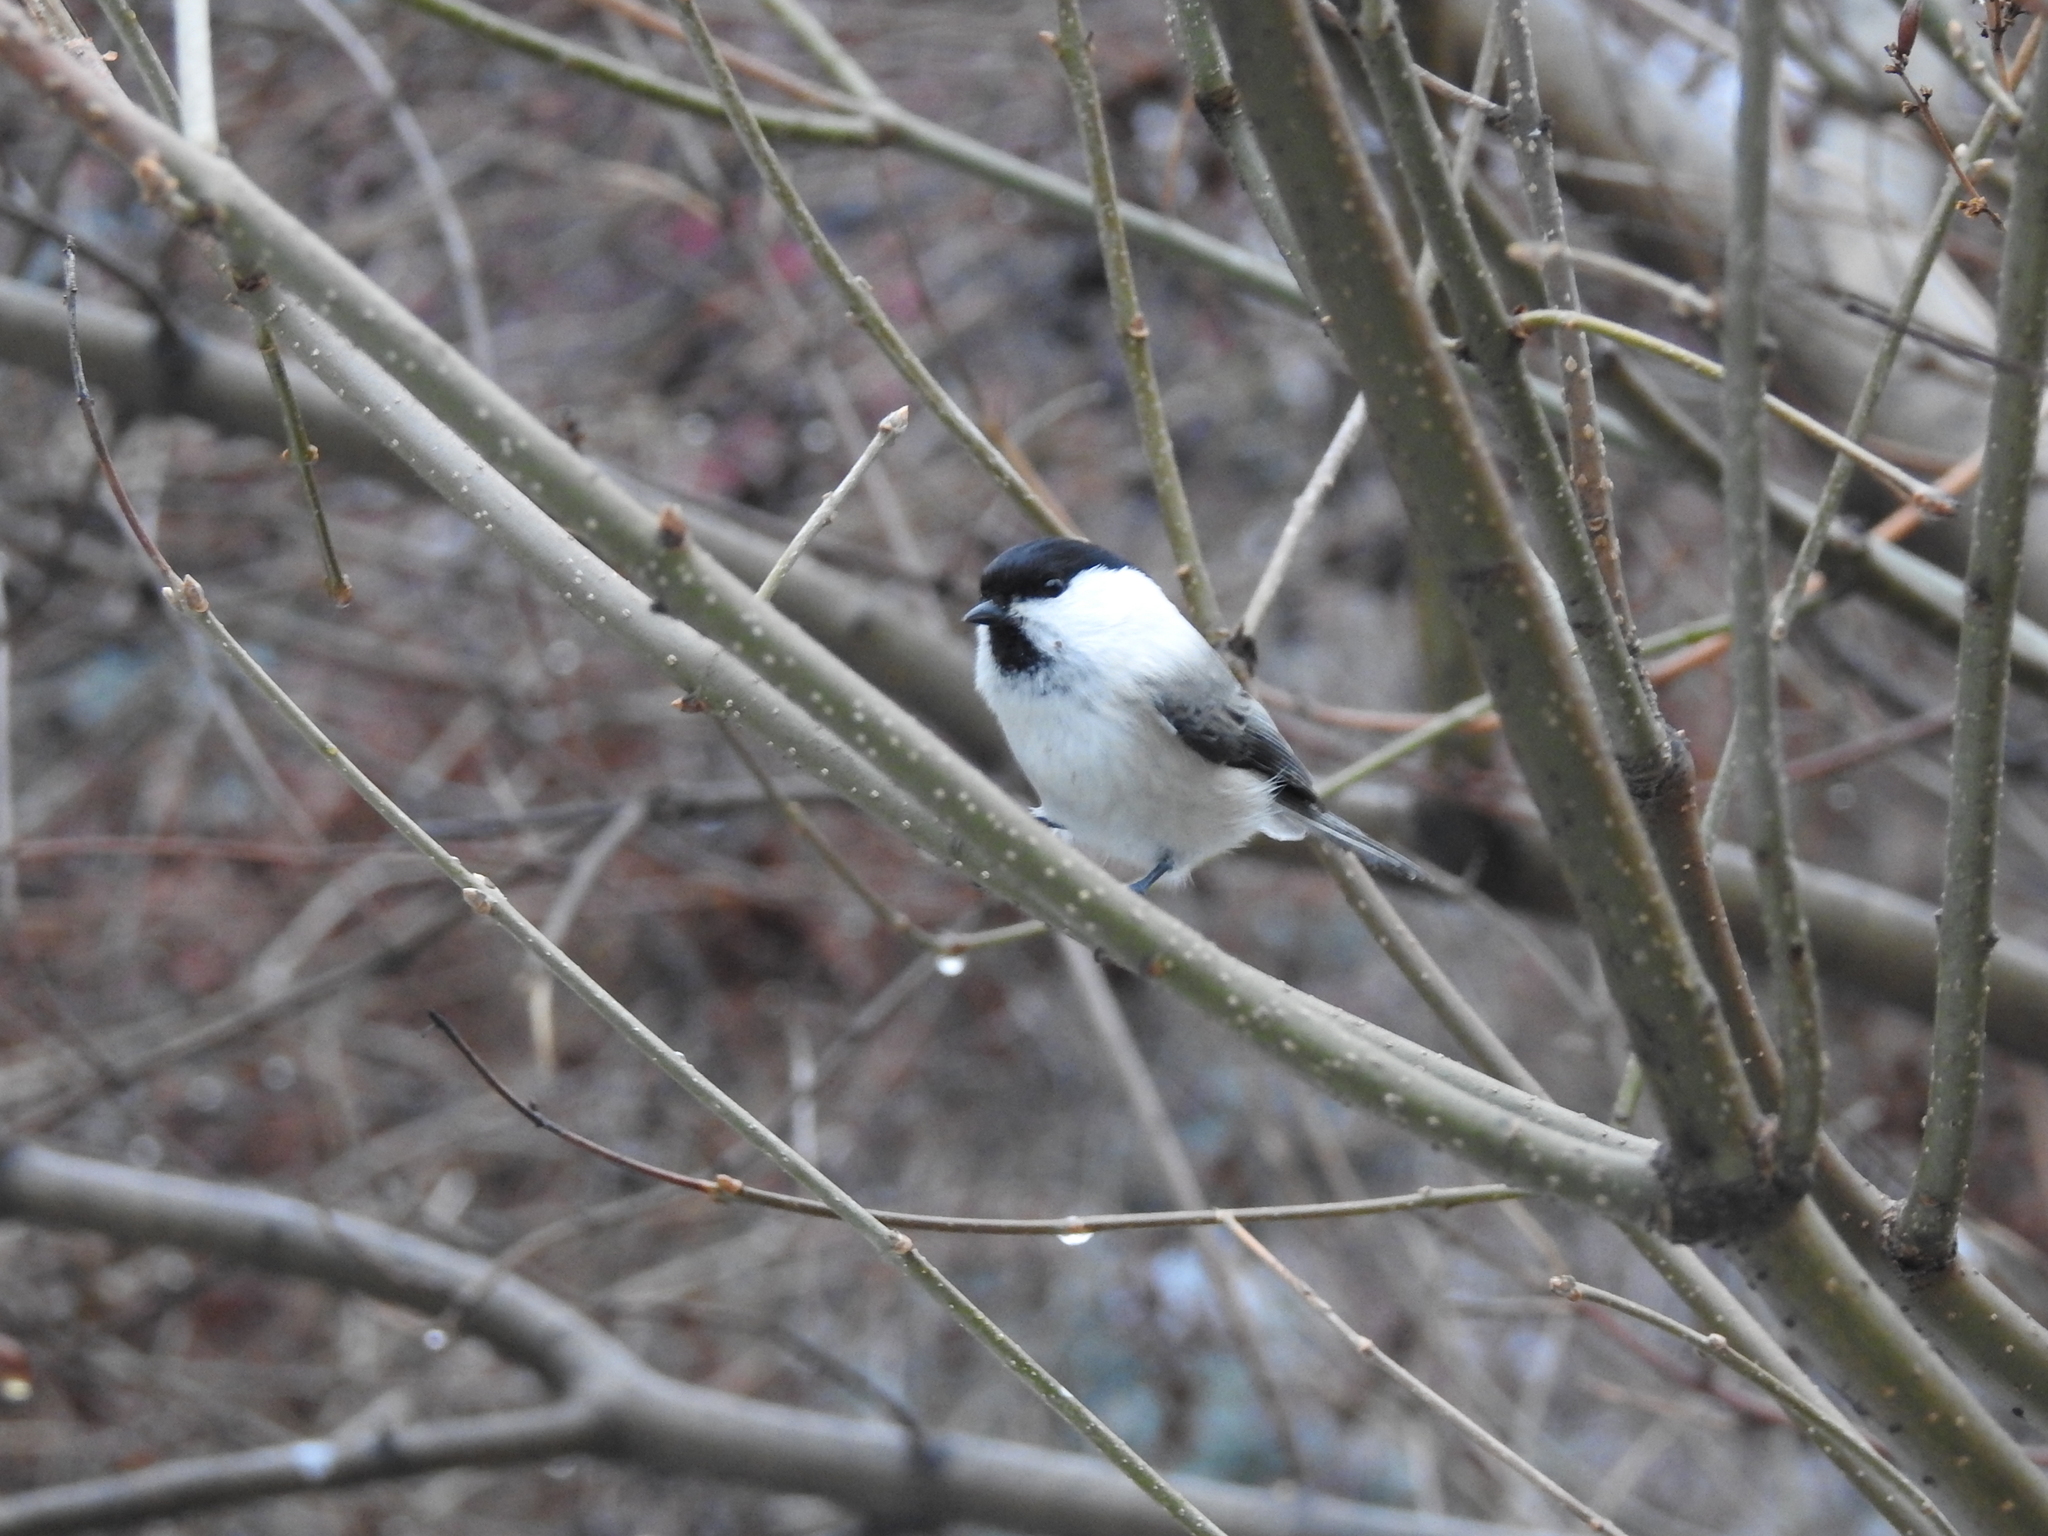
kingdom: Animalia
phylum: Chordata
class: Aves
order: Passeriformes
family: Paridae
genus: Poecile
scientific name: Poecile montanus
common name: Willow tit
